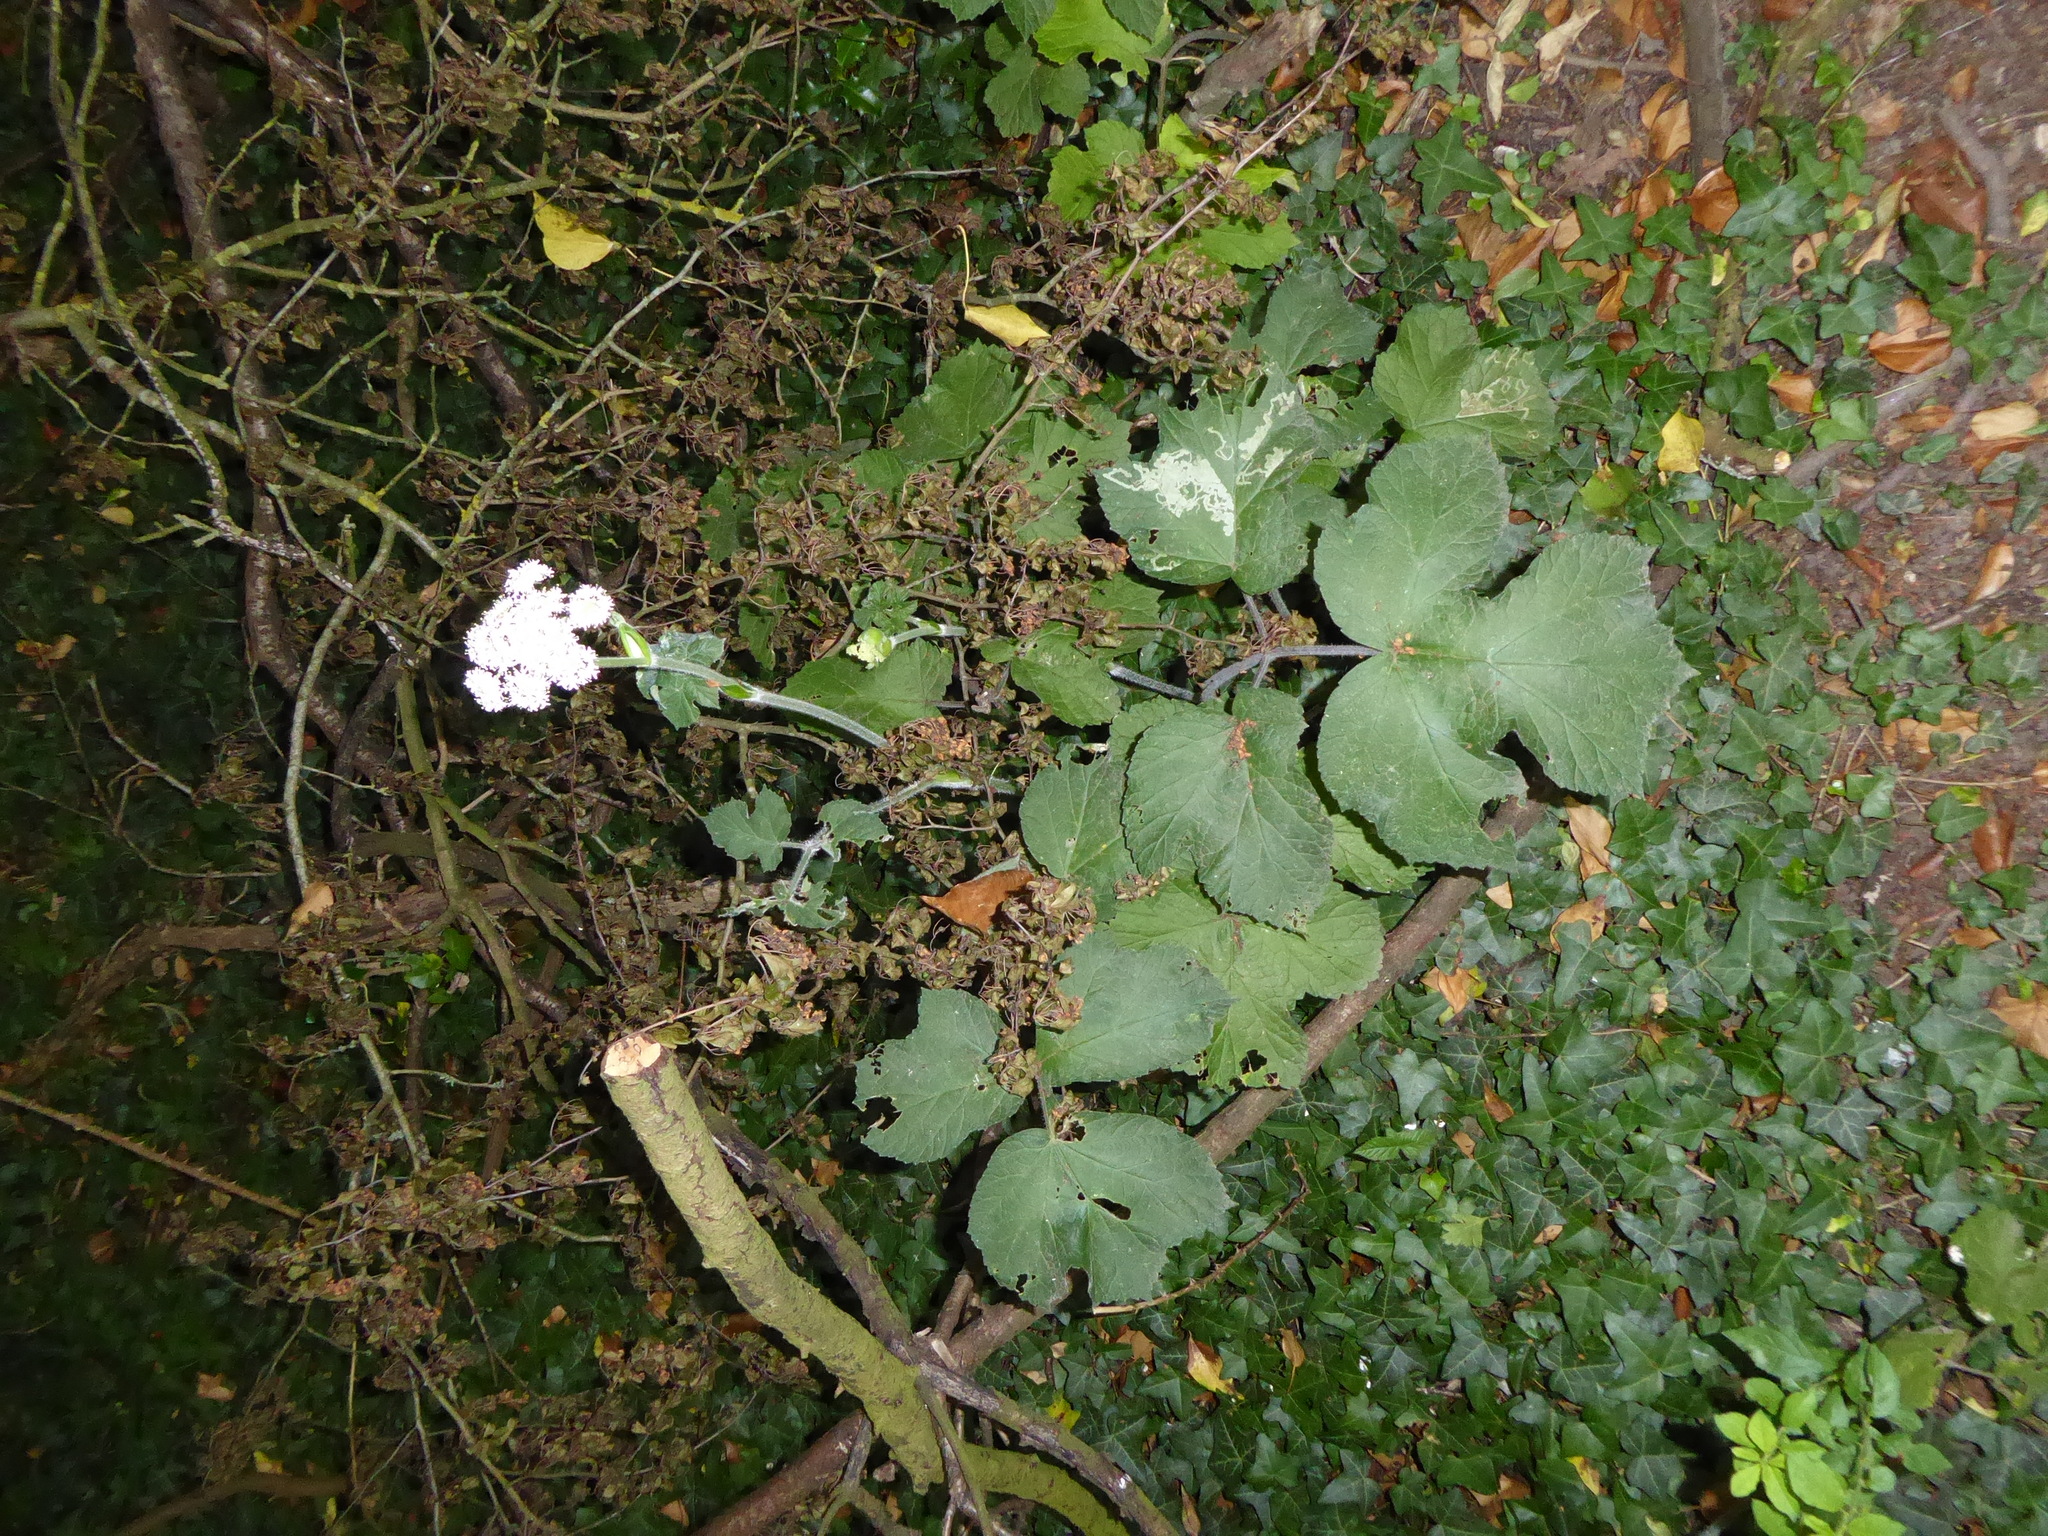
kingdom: Plantae
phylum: Tracheophyta
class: Magnoliopsida
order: Apiales
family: Apiaceae
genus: Heracleum
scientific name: Heracleum sphondylium
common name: Hogweed
